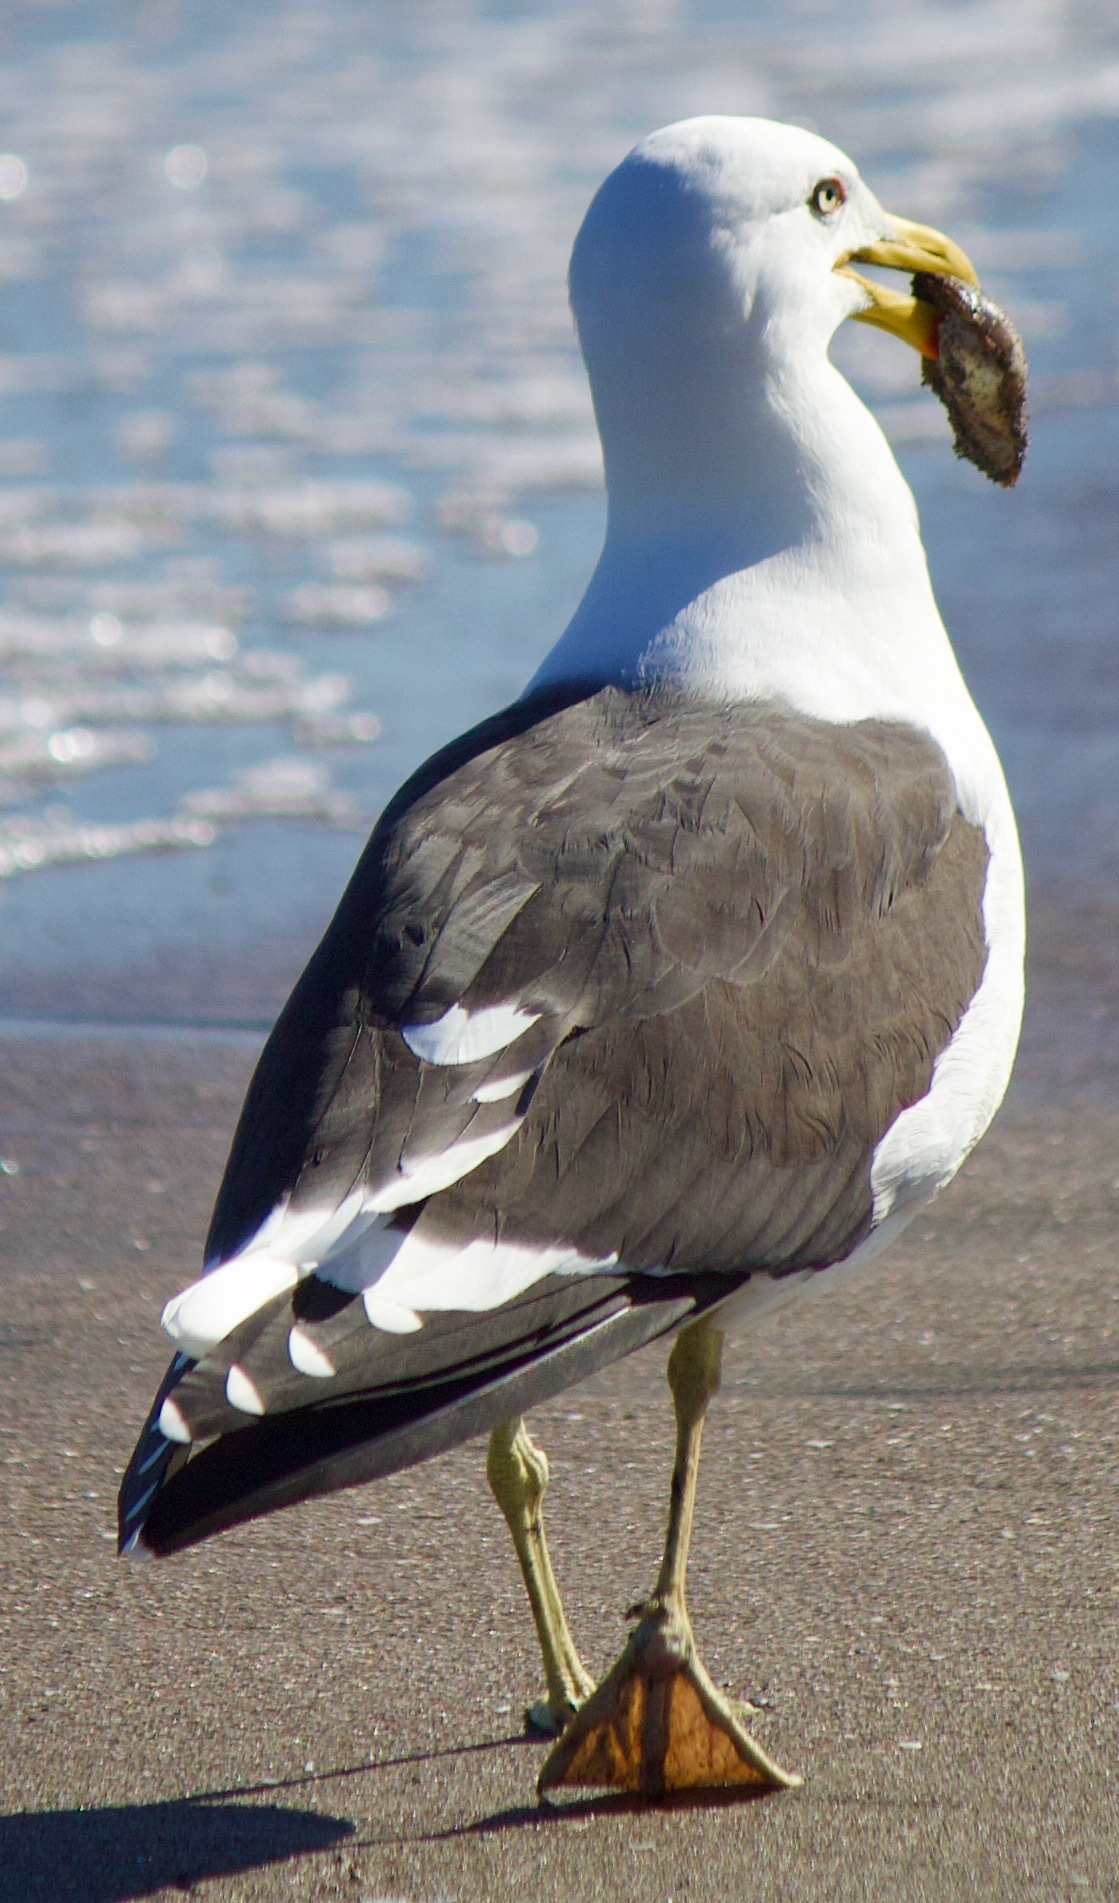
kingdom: Animalia
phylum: Chordata
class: Aves
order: Charadriiformes
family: Laridae
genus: Larus
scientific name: Larus dominicanus
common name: Kelp gull
